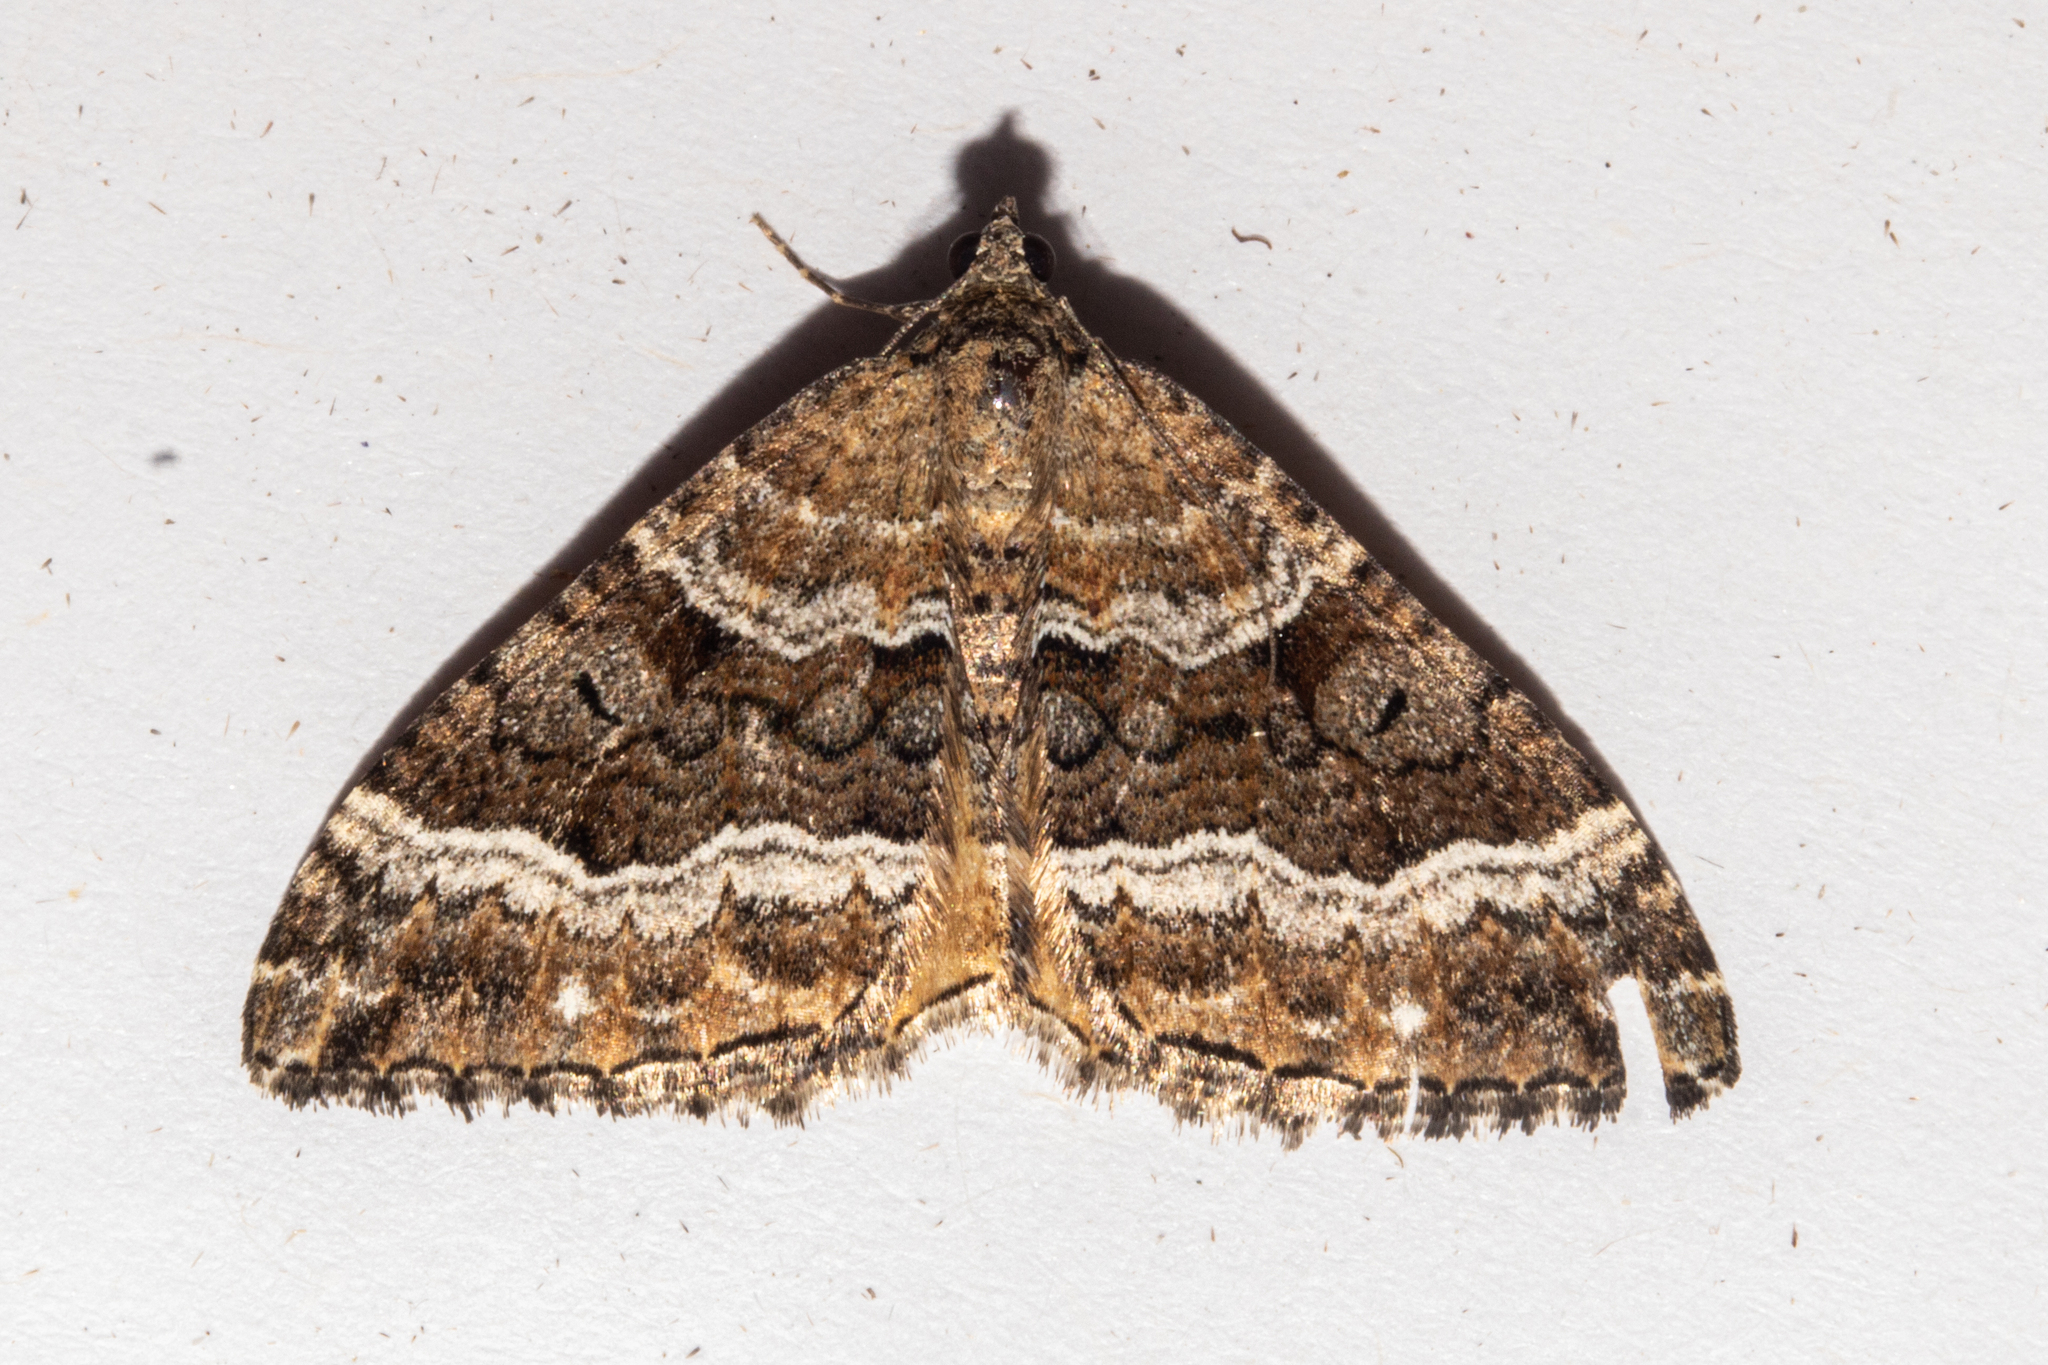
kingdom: Animalia
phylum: Arthropoda
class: Insecta
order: Lepidoptera
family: Geometridae
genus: Hydriomena
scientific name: Hydriomena deltoidata
